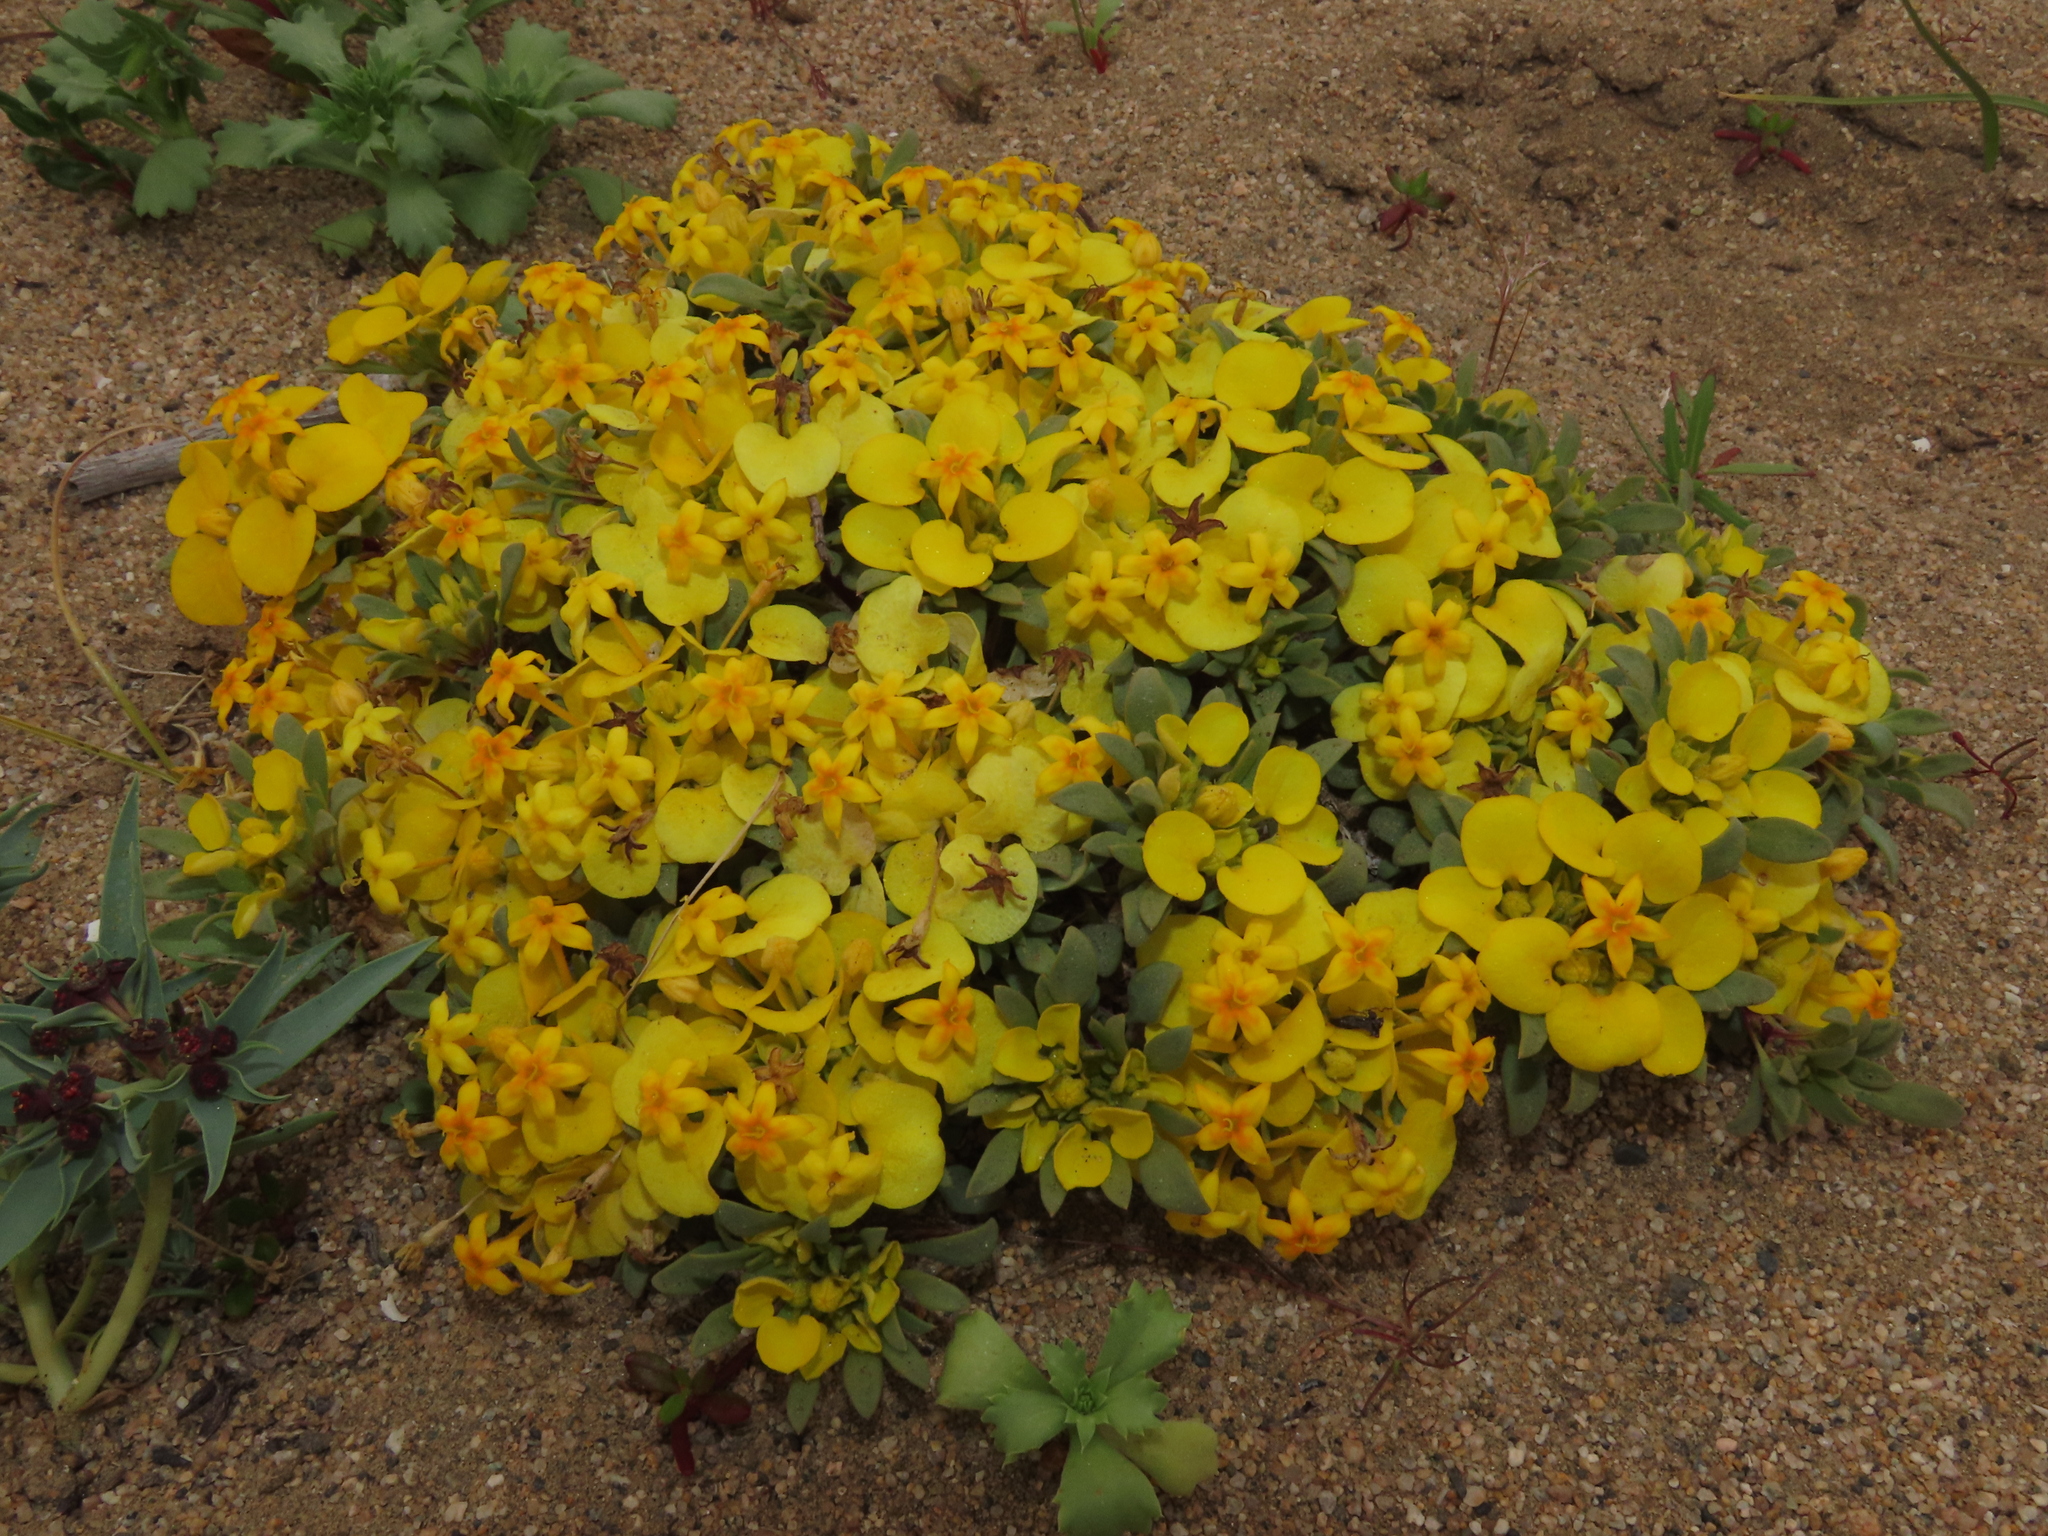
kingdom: Plantae
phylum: Tracheophyta
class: Magnoliopsida
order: Gentianales
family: Rubiaceae
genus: Cruckshanksia
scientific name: Cruckshanksia montiana
